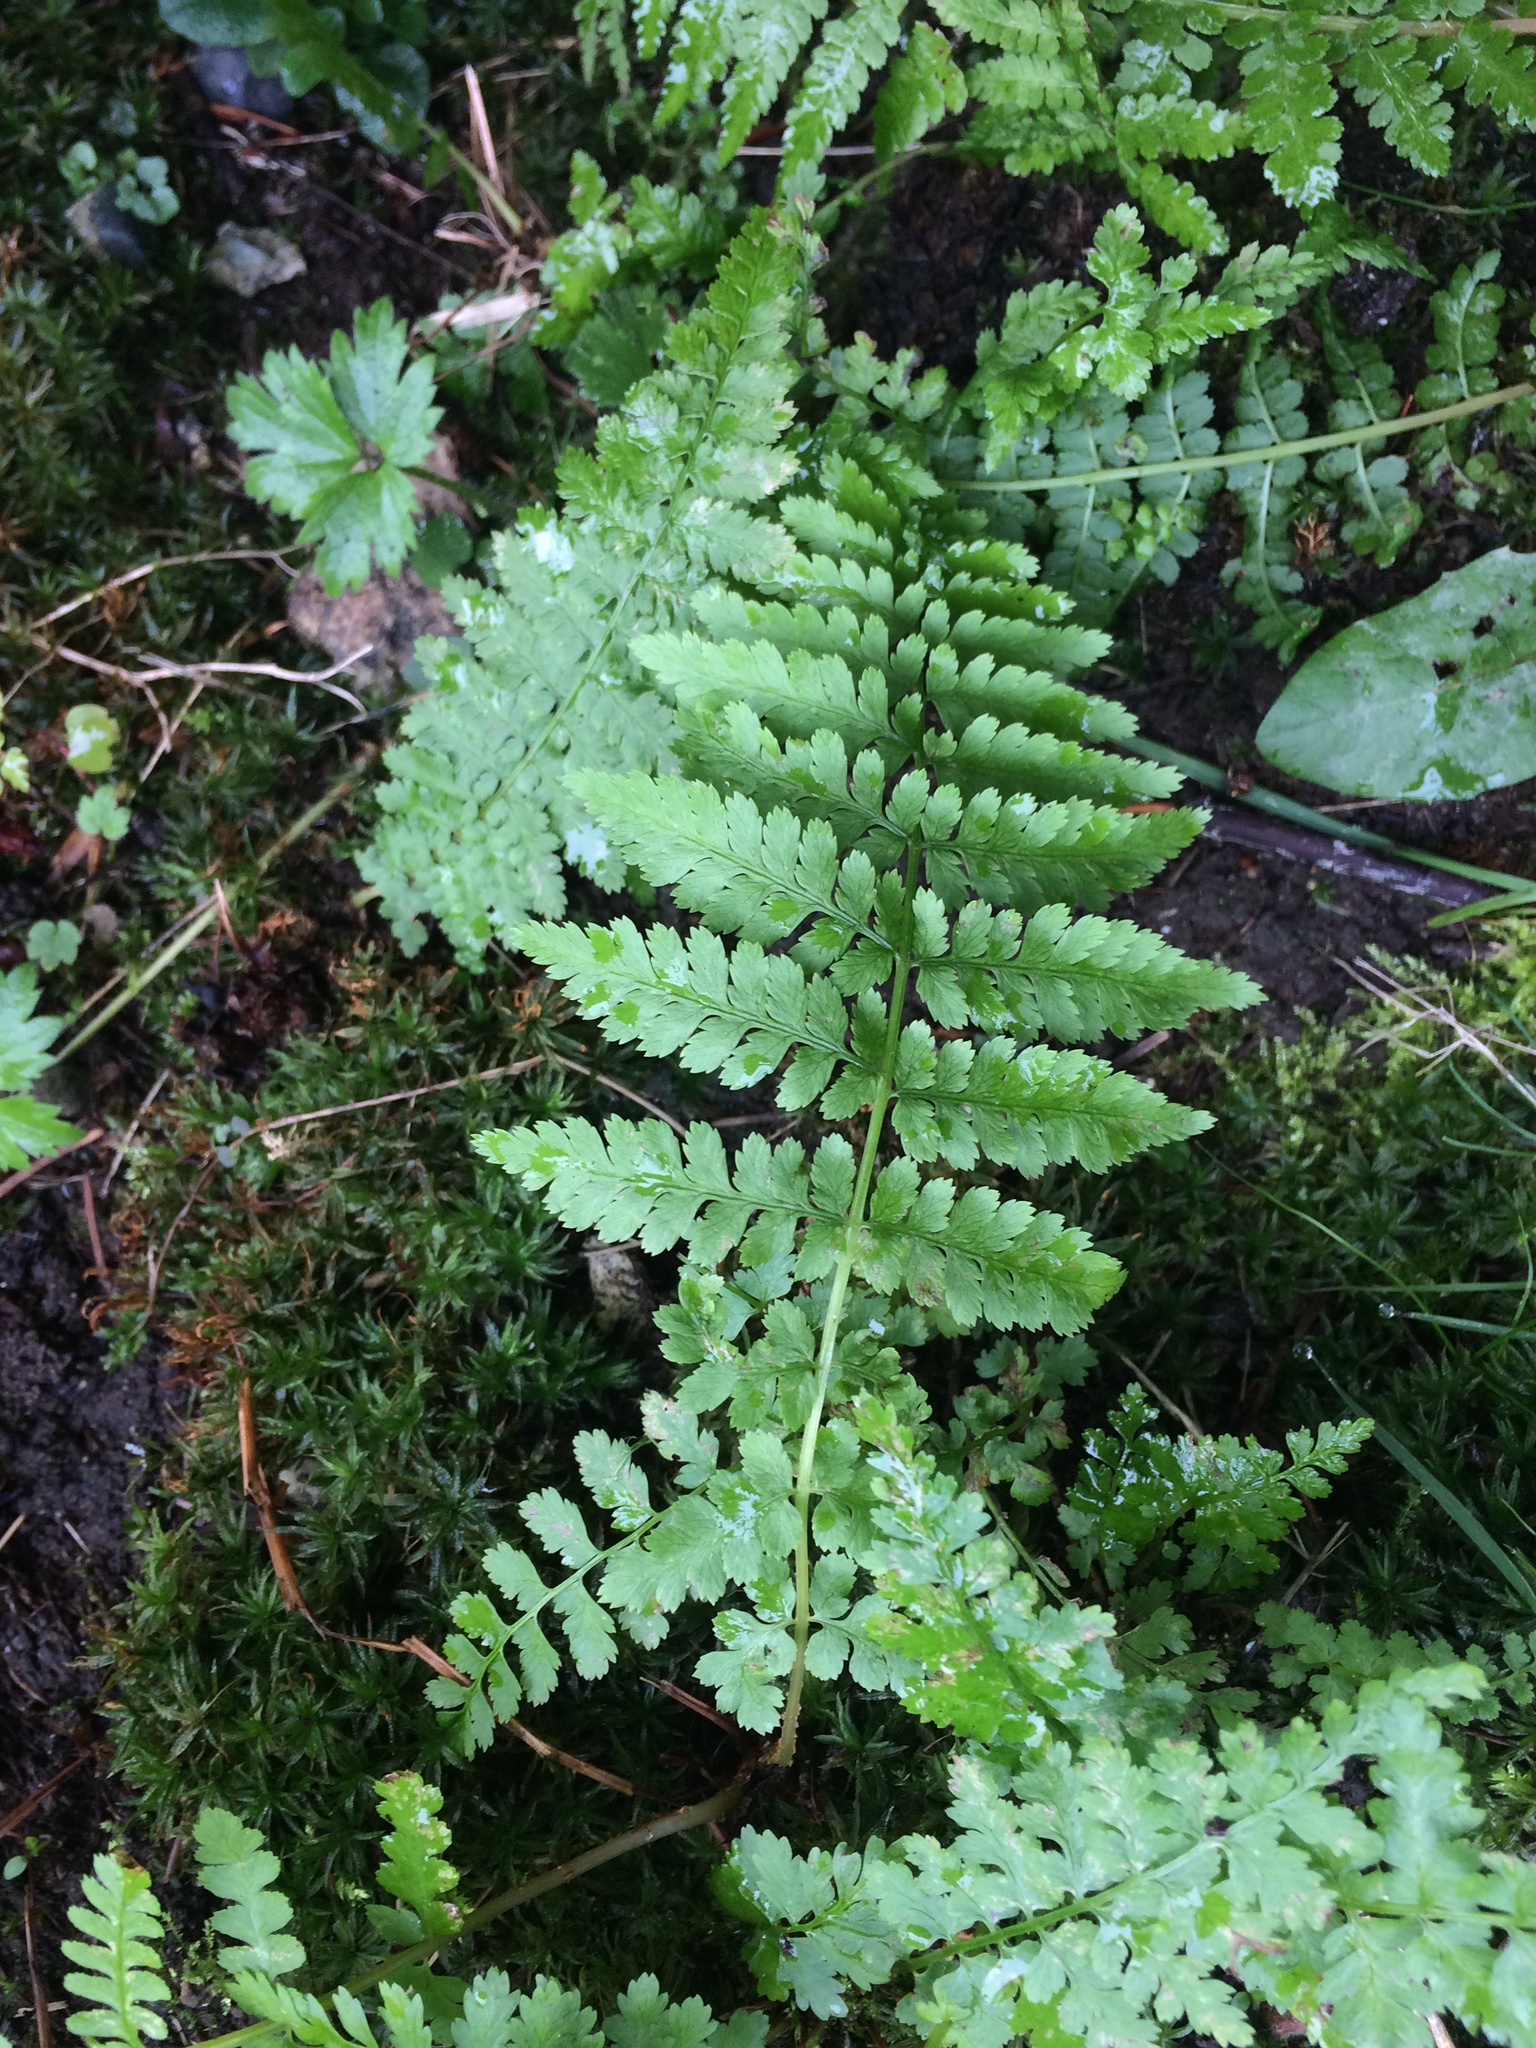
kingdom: Plantae
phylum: Tracheophyta
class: Polypodiopsida
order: Polypodiales
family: Athyriaceae
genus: Athyrium
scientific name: Athyrium filix-femina
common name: Lady fern
